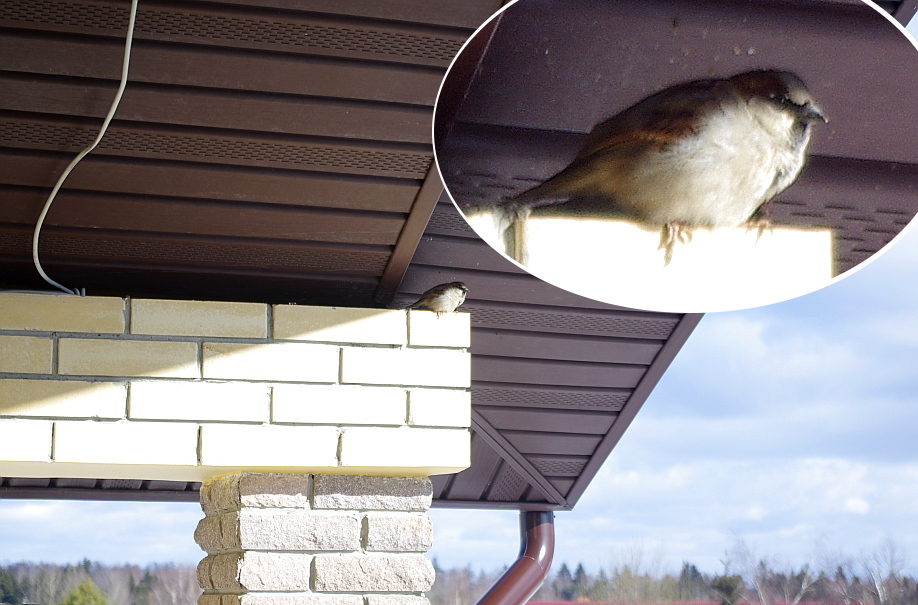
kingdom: Animalia
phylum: Chordata
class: Aves
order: Passeriformes
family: Passeridae
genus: Passer
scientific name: Passer domesticus
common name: House sparrow
